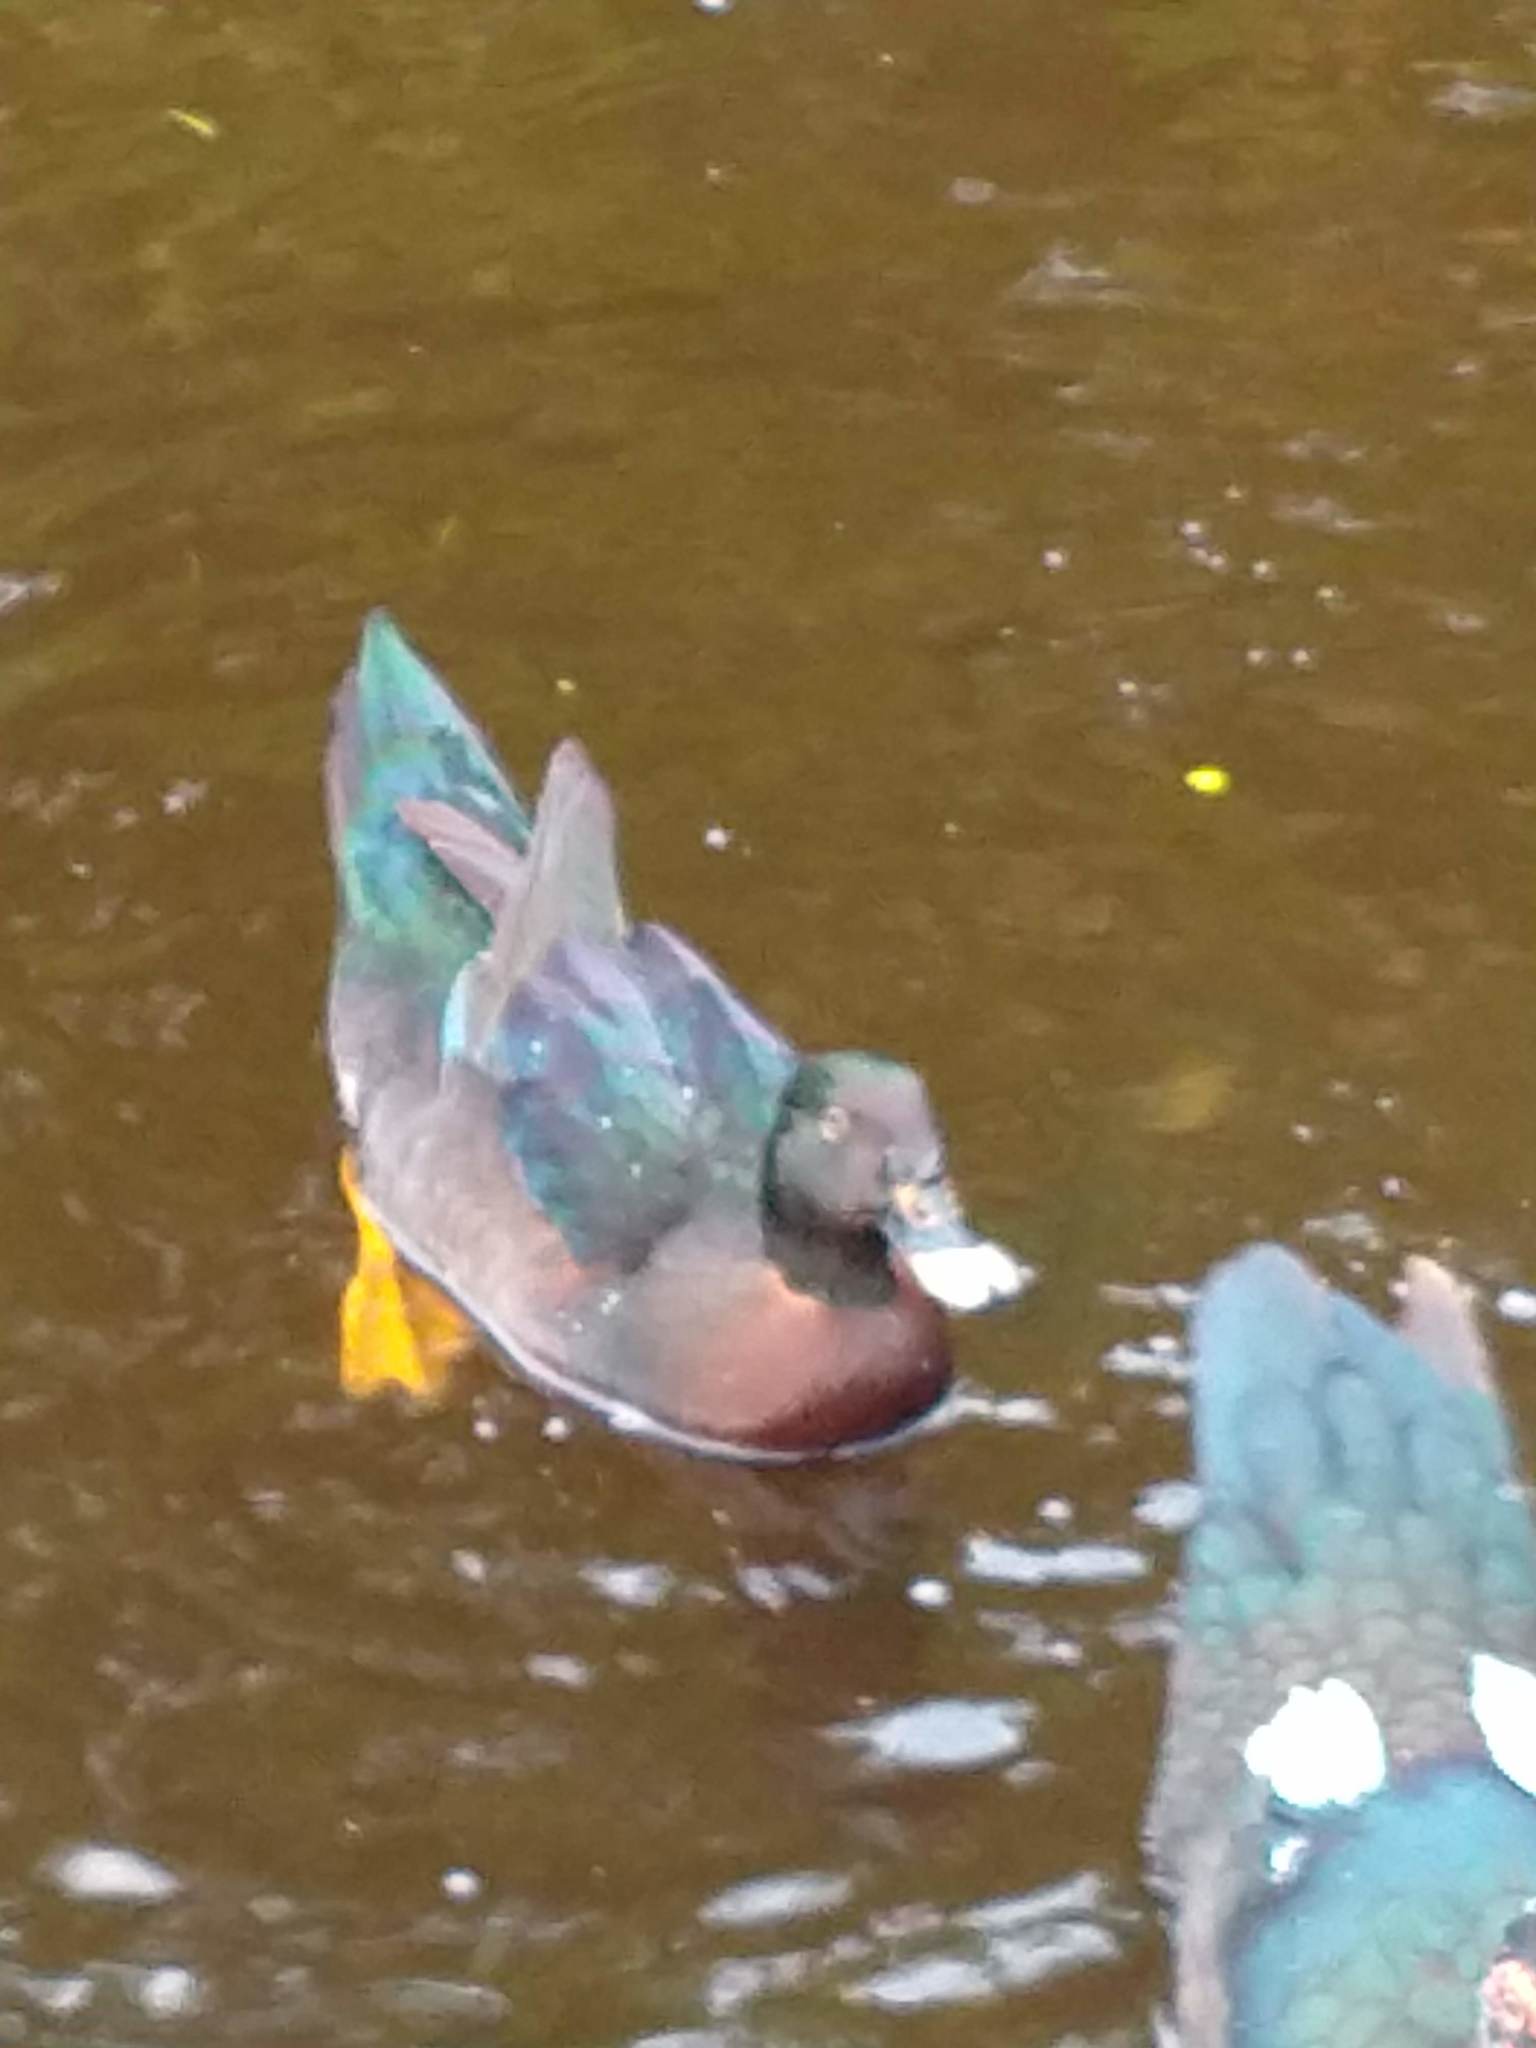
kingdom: Animalia
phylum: Chordata
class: Aves
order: Anseriformes
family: Anatidae
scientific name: Anatidae
